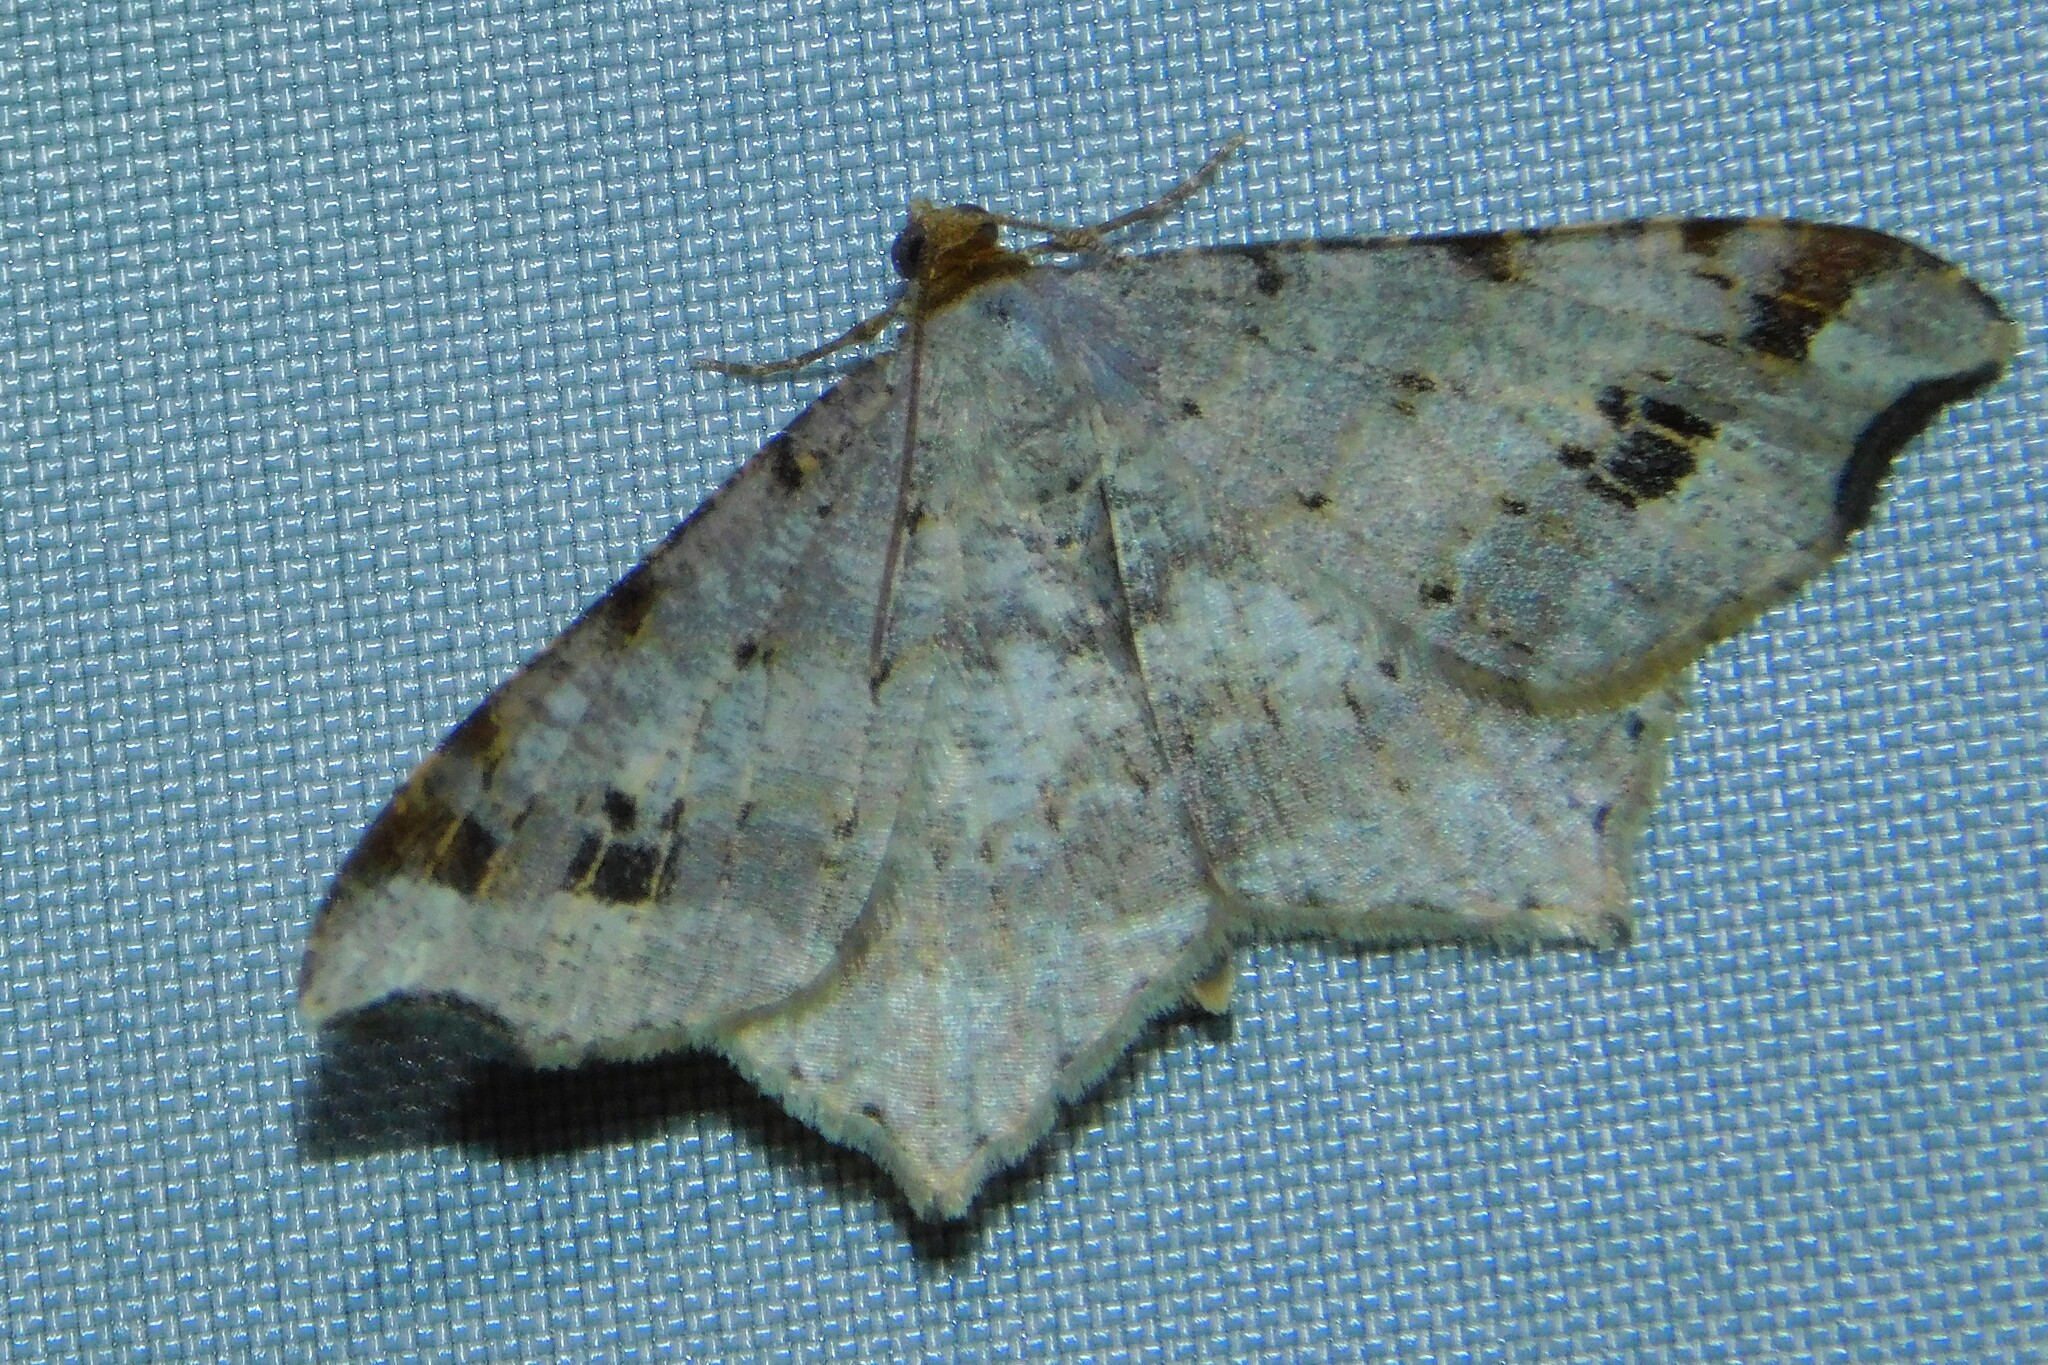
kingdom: Animalia
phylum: Arthropoda
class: Insecta
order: Lepidoptera
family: Geometridae
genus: Macaria
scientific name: Macaria alternata
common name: Sharp-angled peacock
